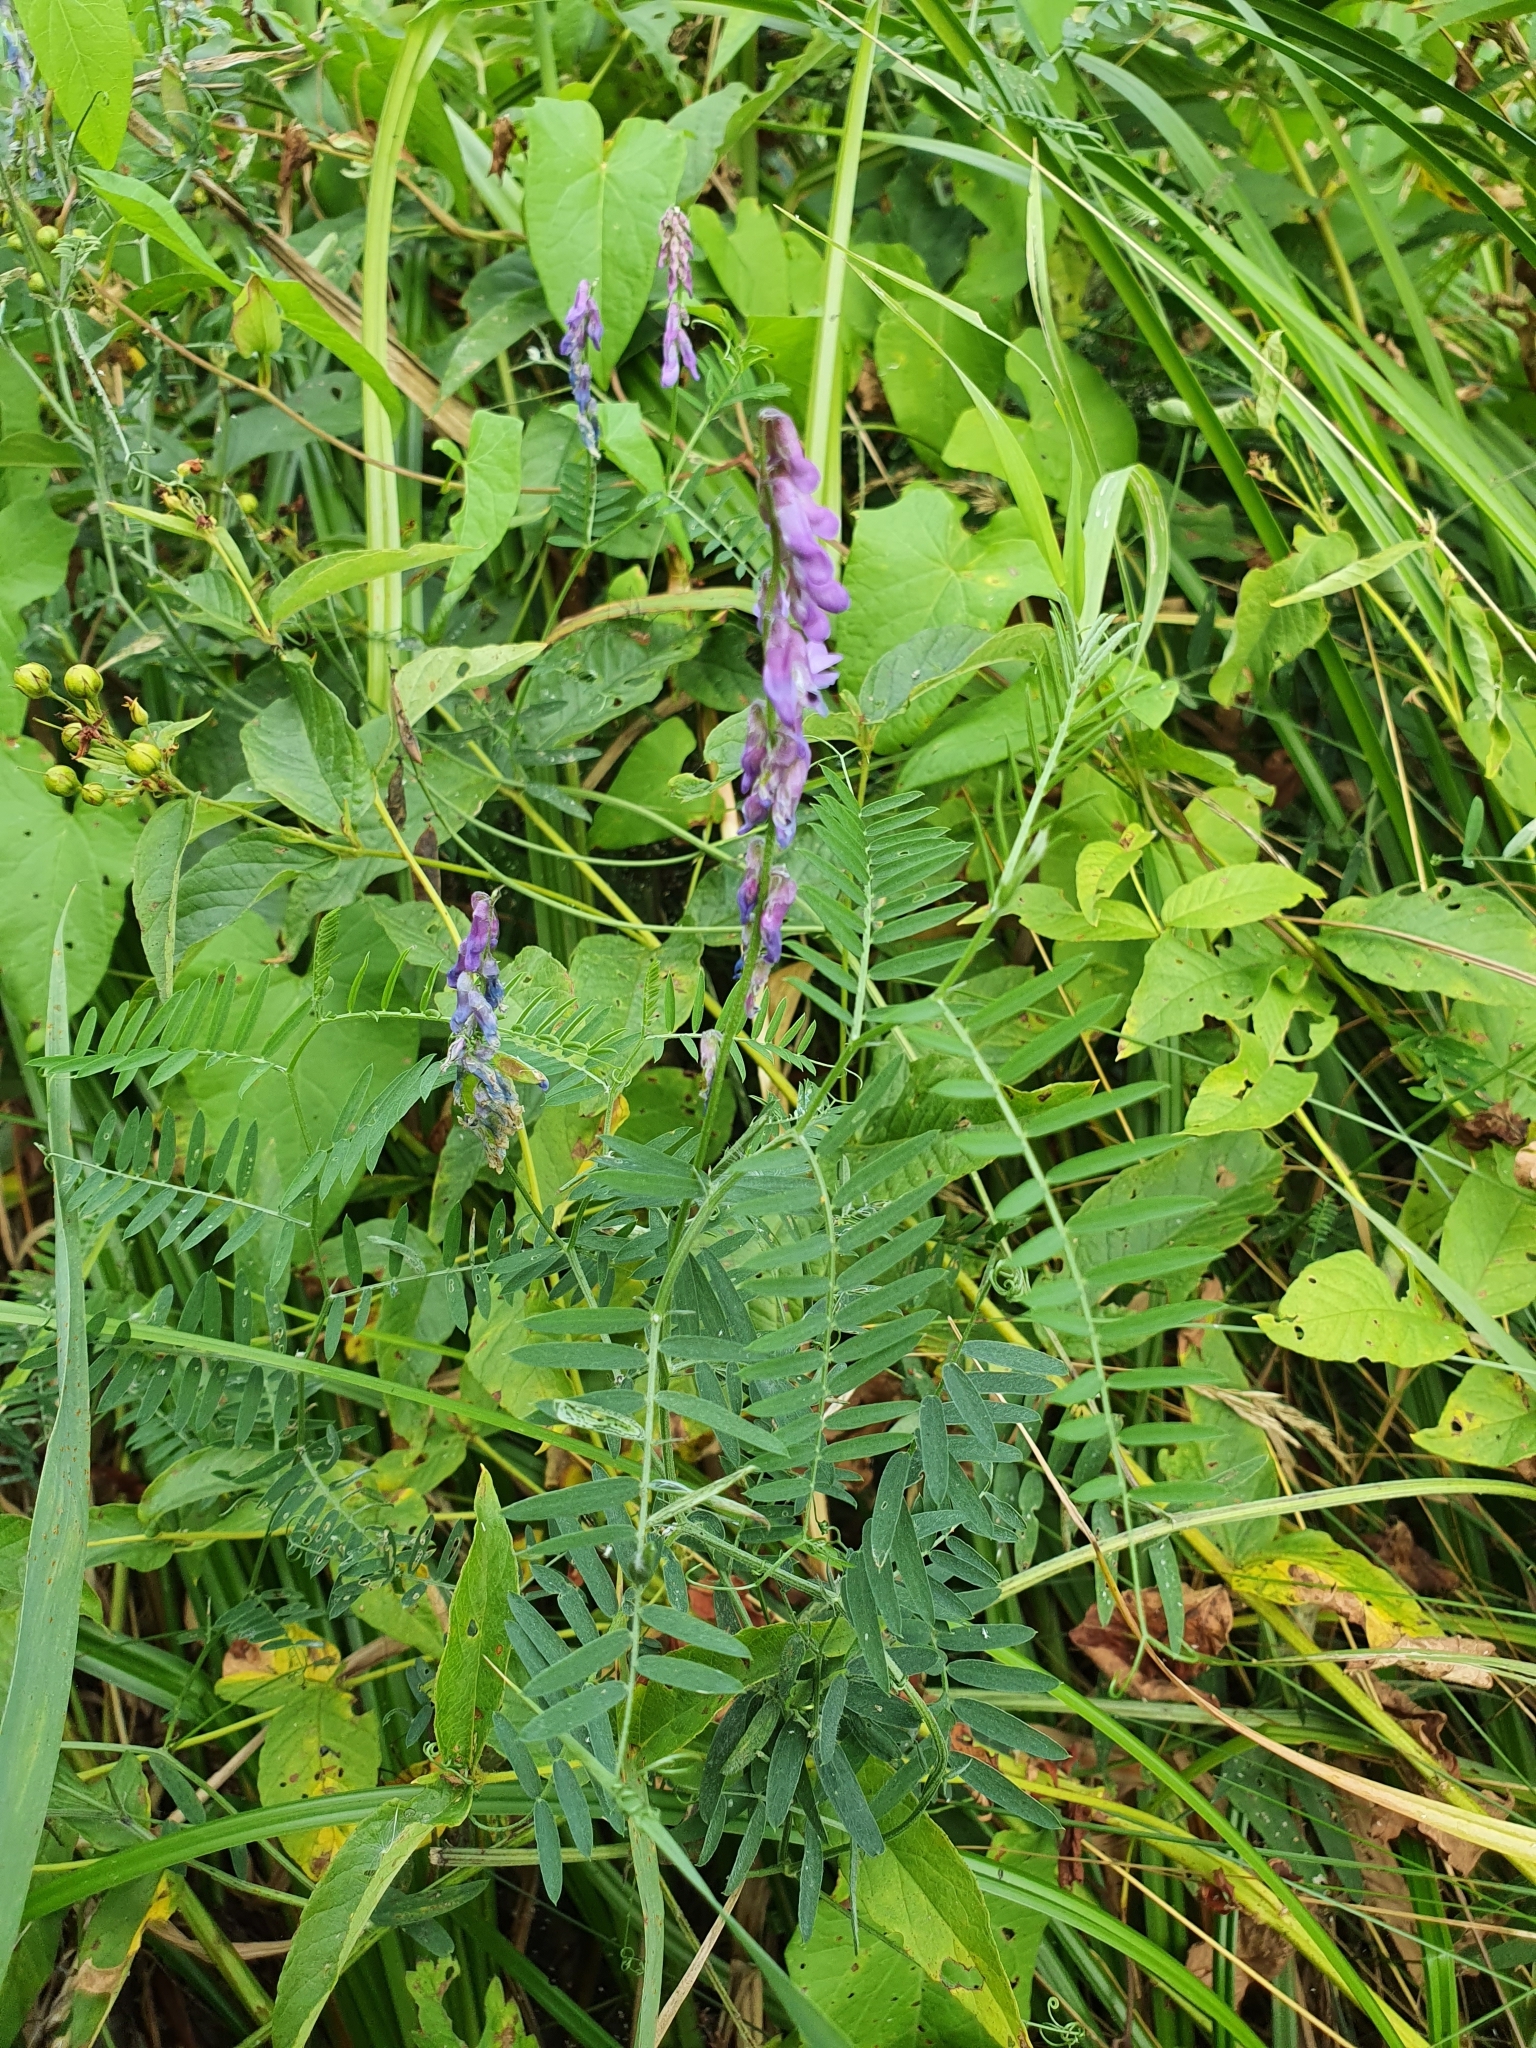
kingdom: Plantae
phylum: Tracheophyta
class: Magnoliopsida
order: Fabales
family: Fabaceae
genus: Vicia
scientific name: Vicia cracca
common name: Bird vetch
